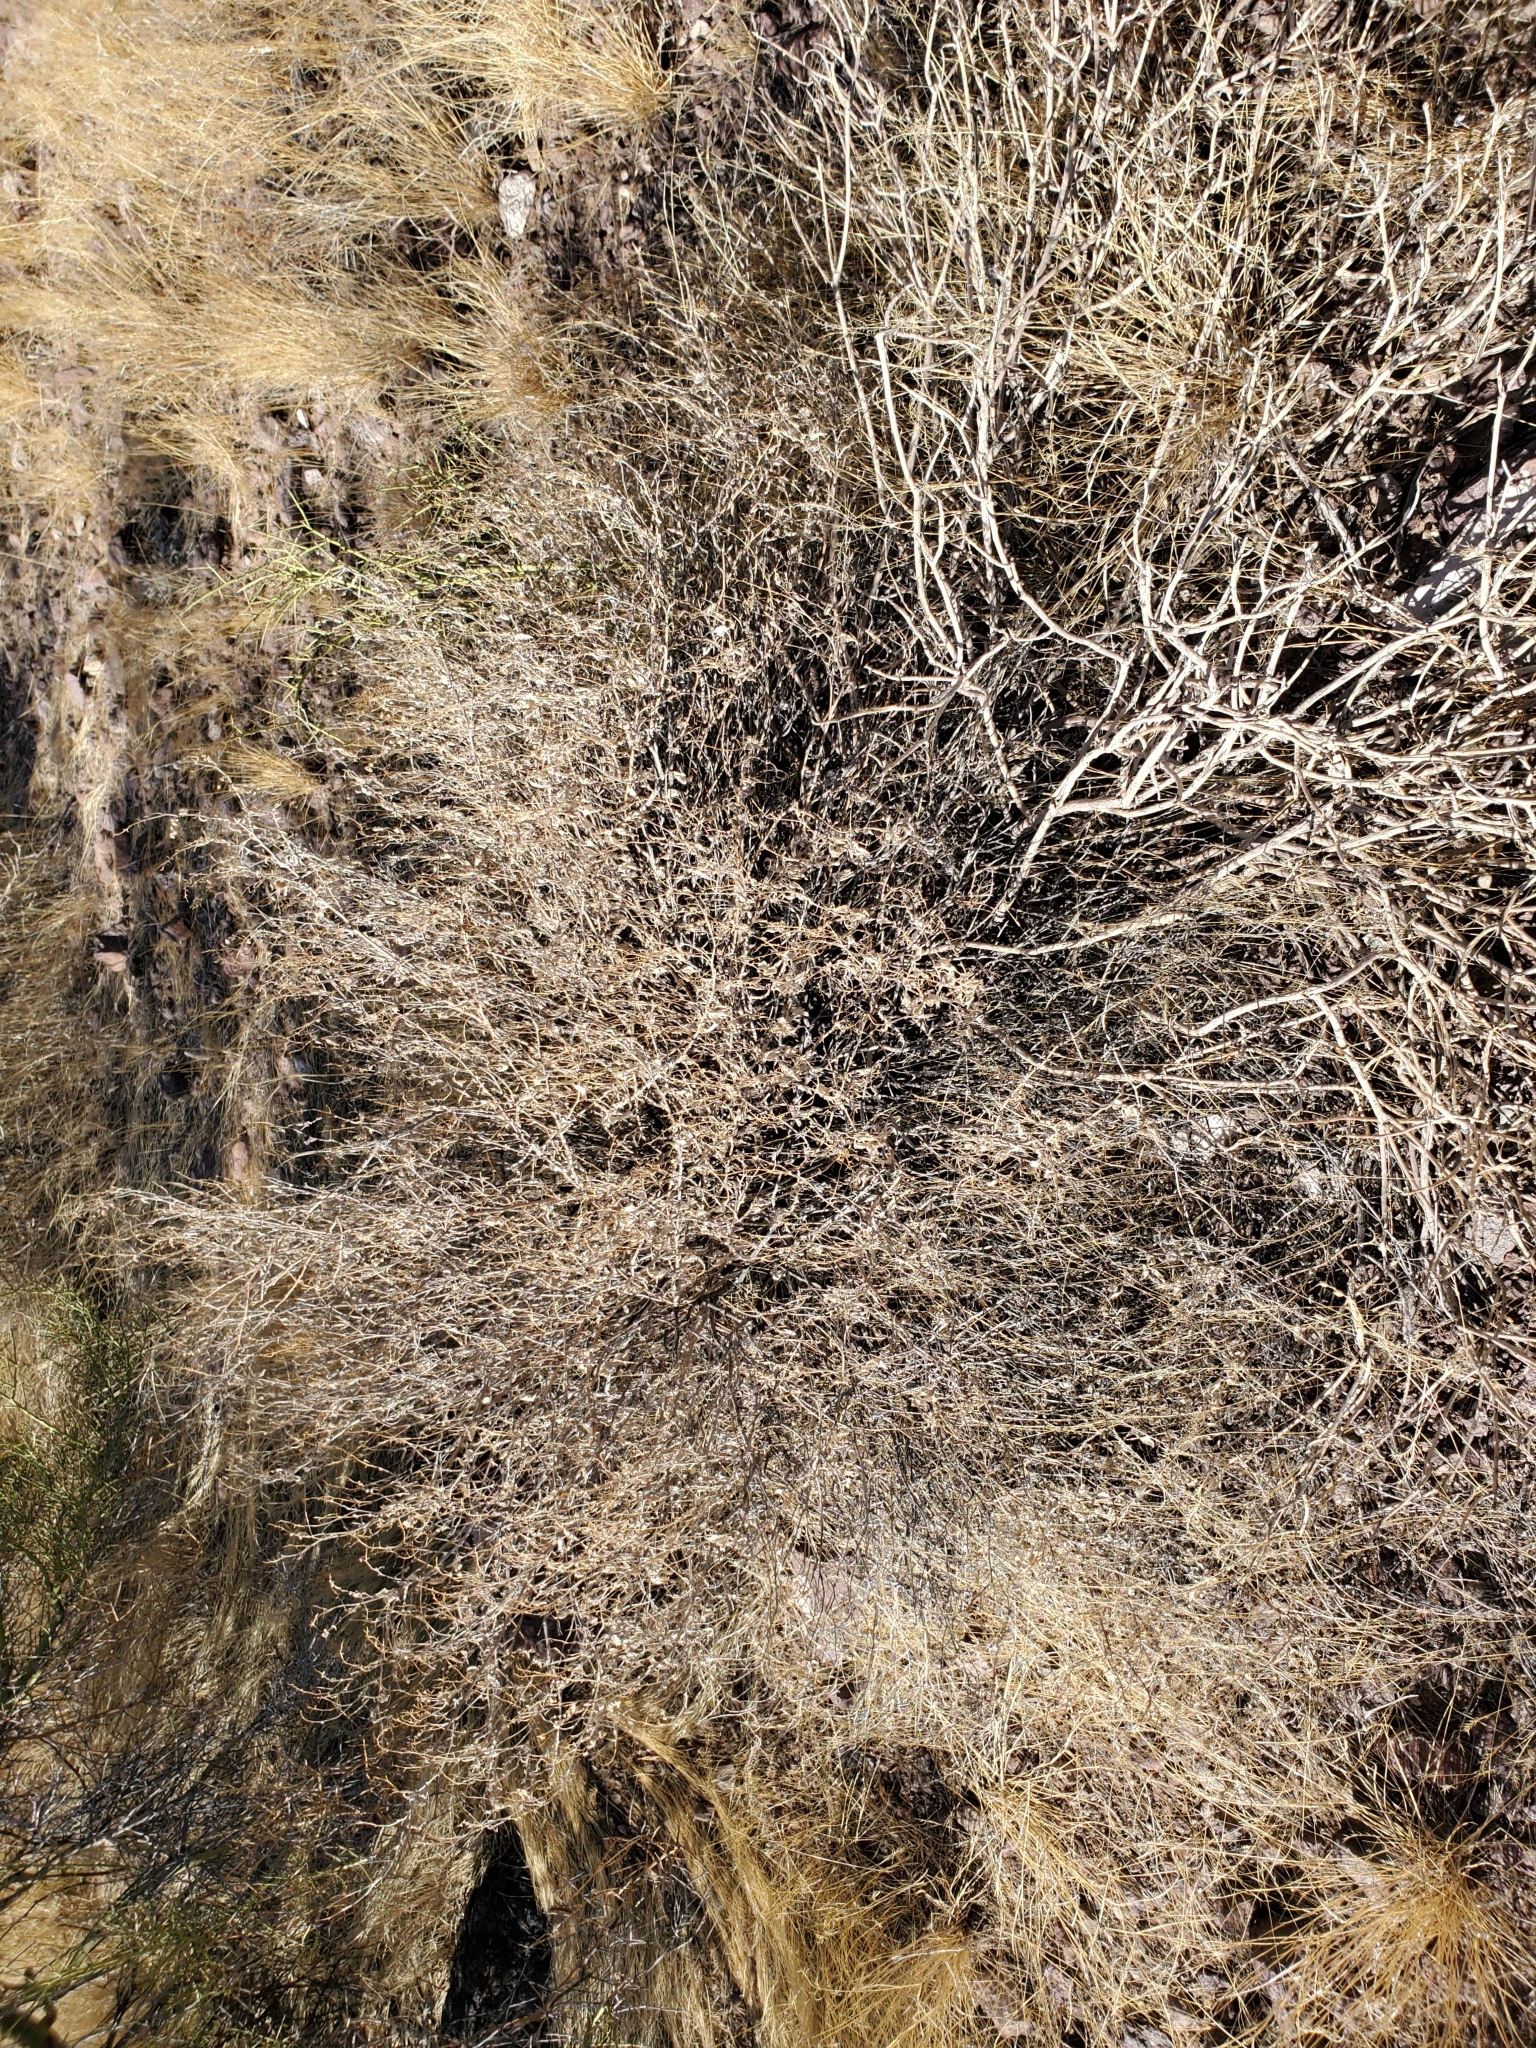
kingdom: Plantae
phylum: Tracheophyta
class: Magnoliopsida
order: Asterales
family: Asteraceae
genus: Ambrosia
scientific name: Ambrosia deltoidea
